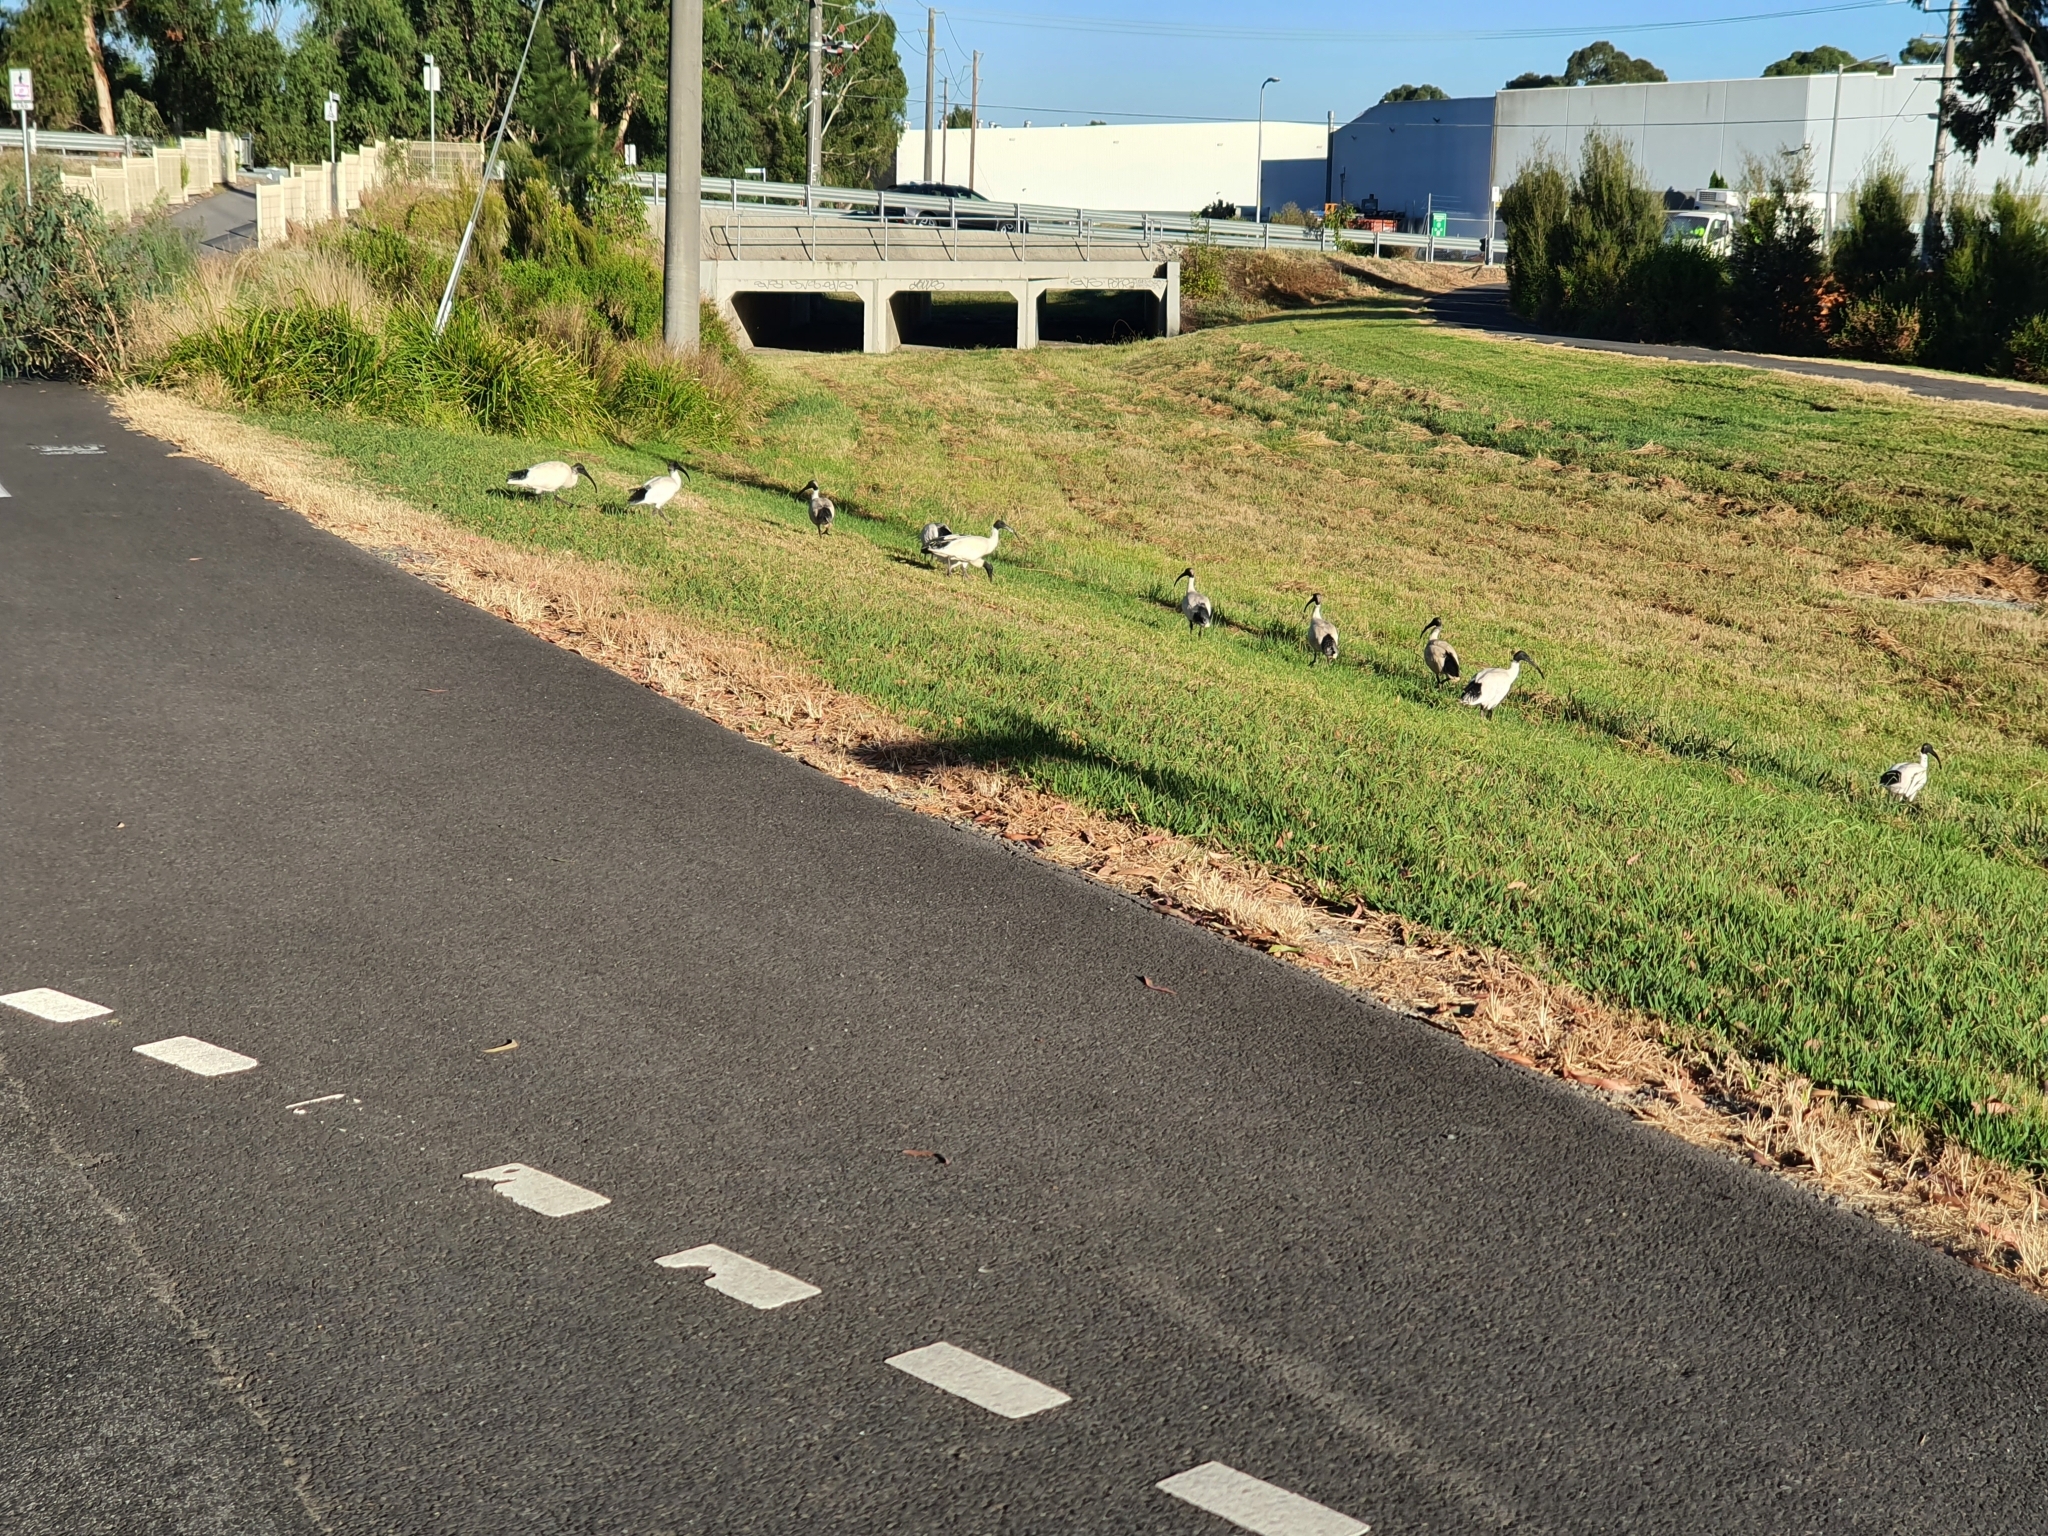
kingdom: Animalia
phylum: Chordata
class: Aves
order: Pelecaniformes
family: Threskiornithidae
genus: Threskiornis
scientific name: Threskiornis molucca
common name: Australian white ibis
